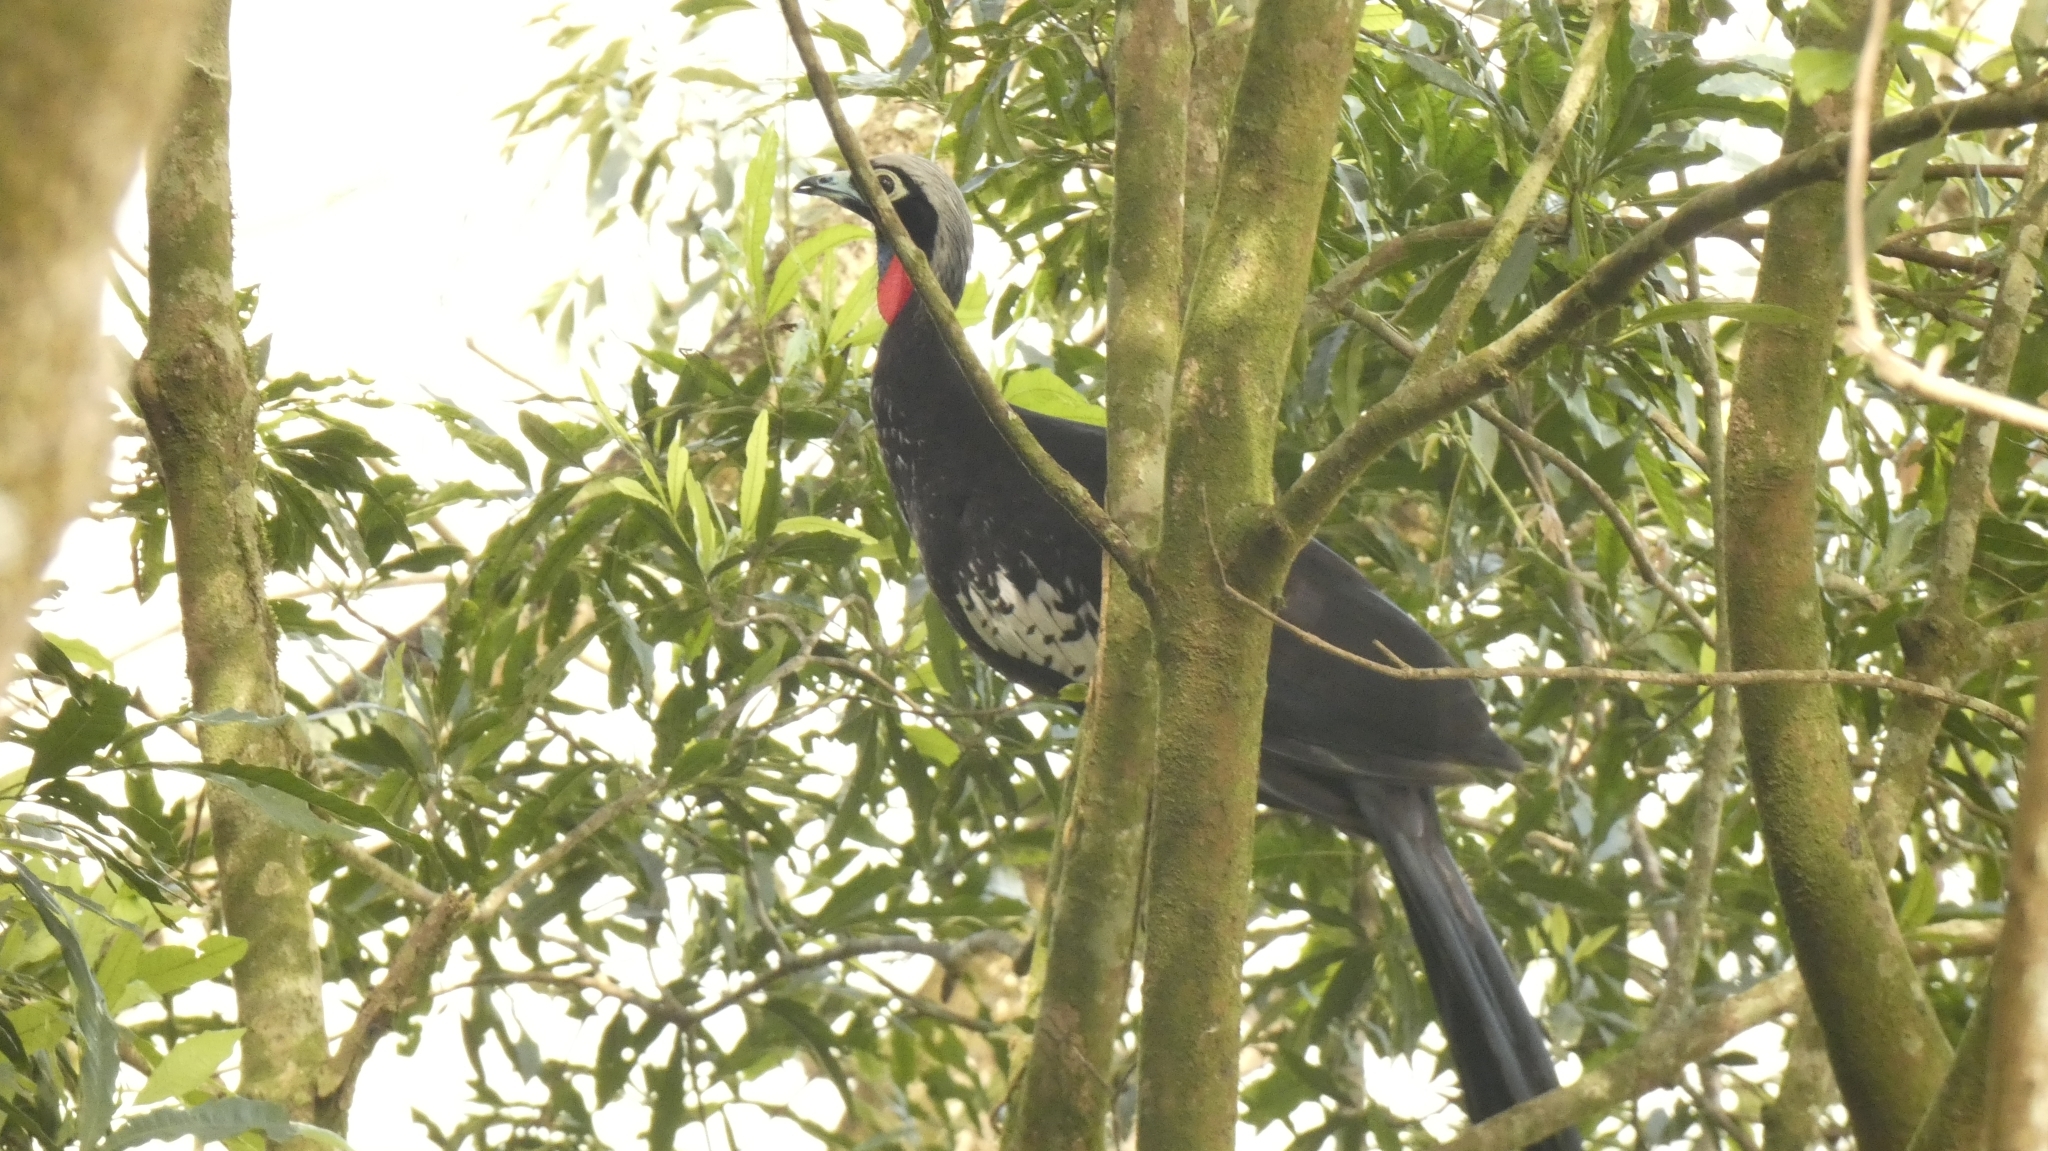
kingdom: Animalia
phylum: Chordata
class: Aves
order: Galliformes
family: Cracidae
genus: Pipile
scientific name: Pipile jacutinga
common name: Black-fronted piping-guan
